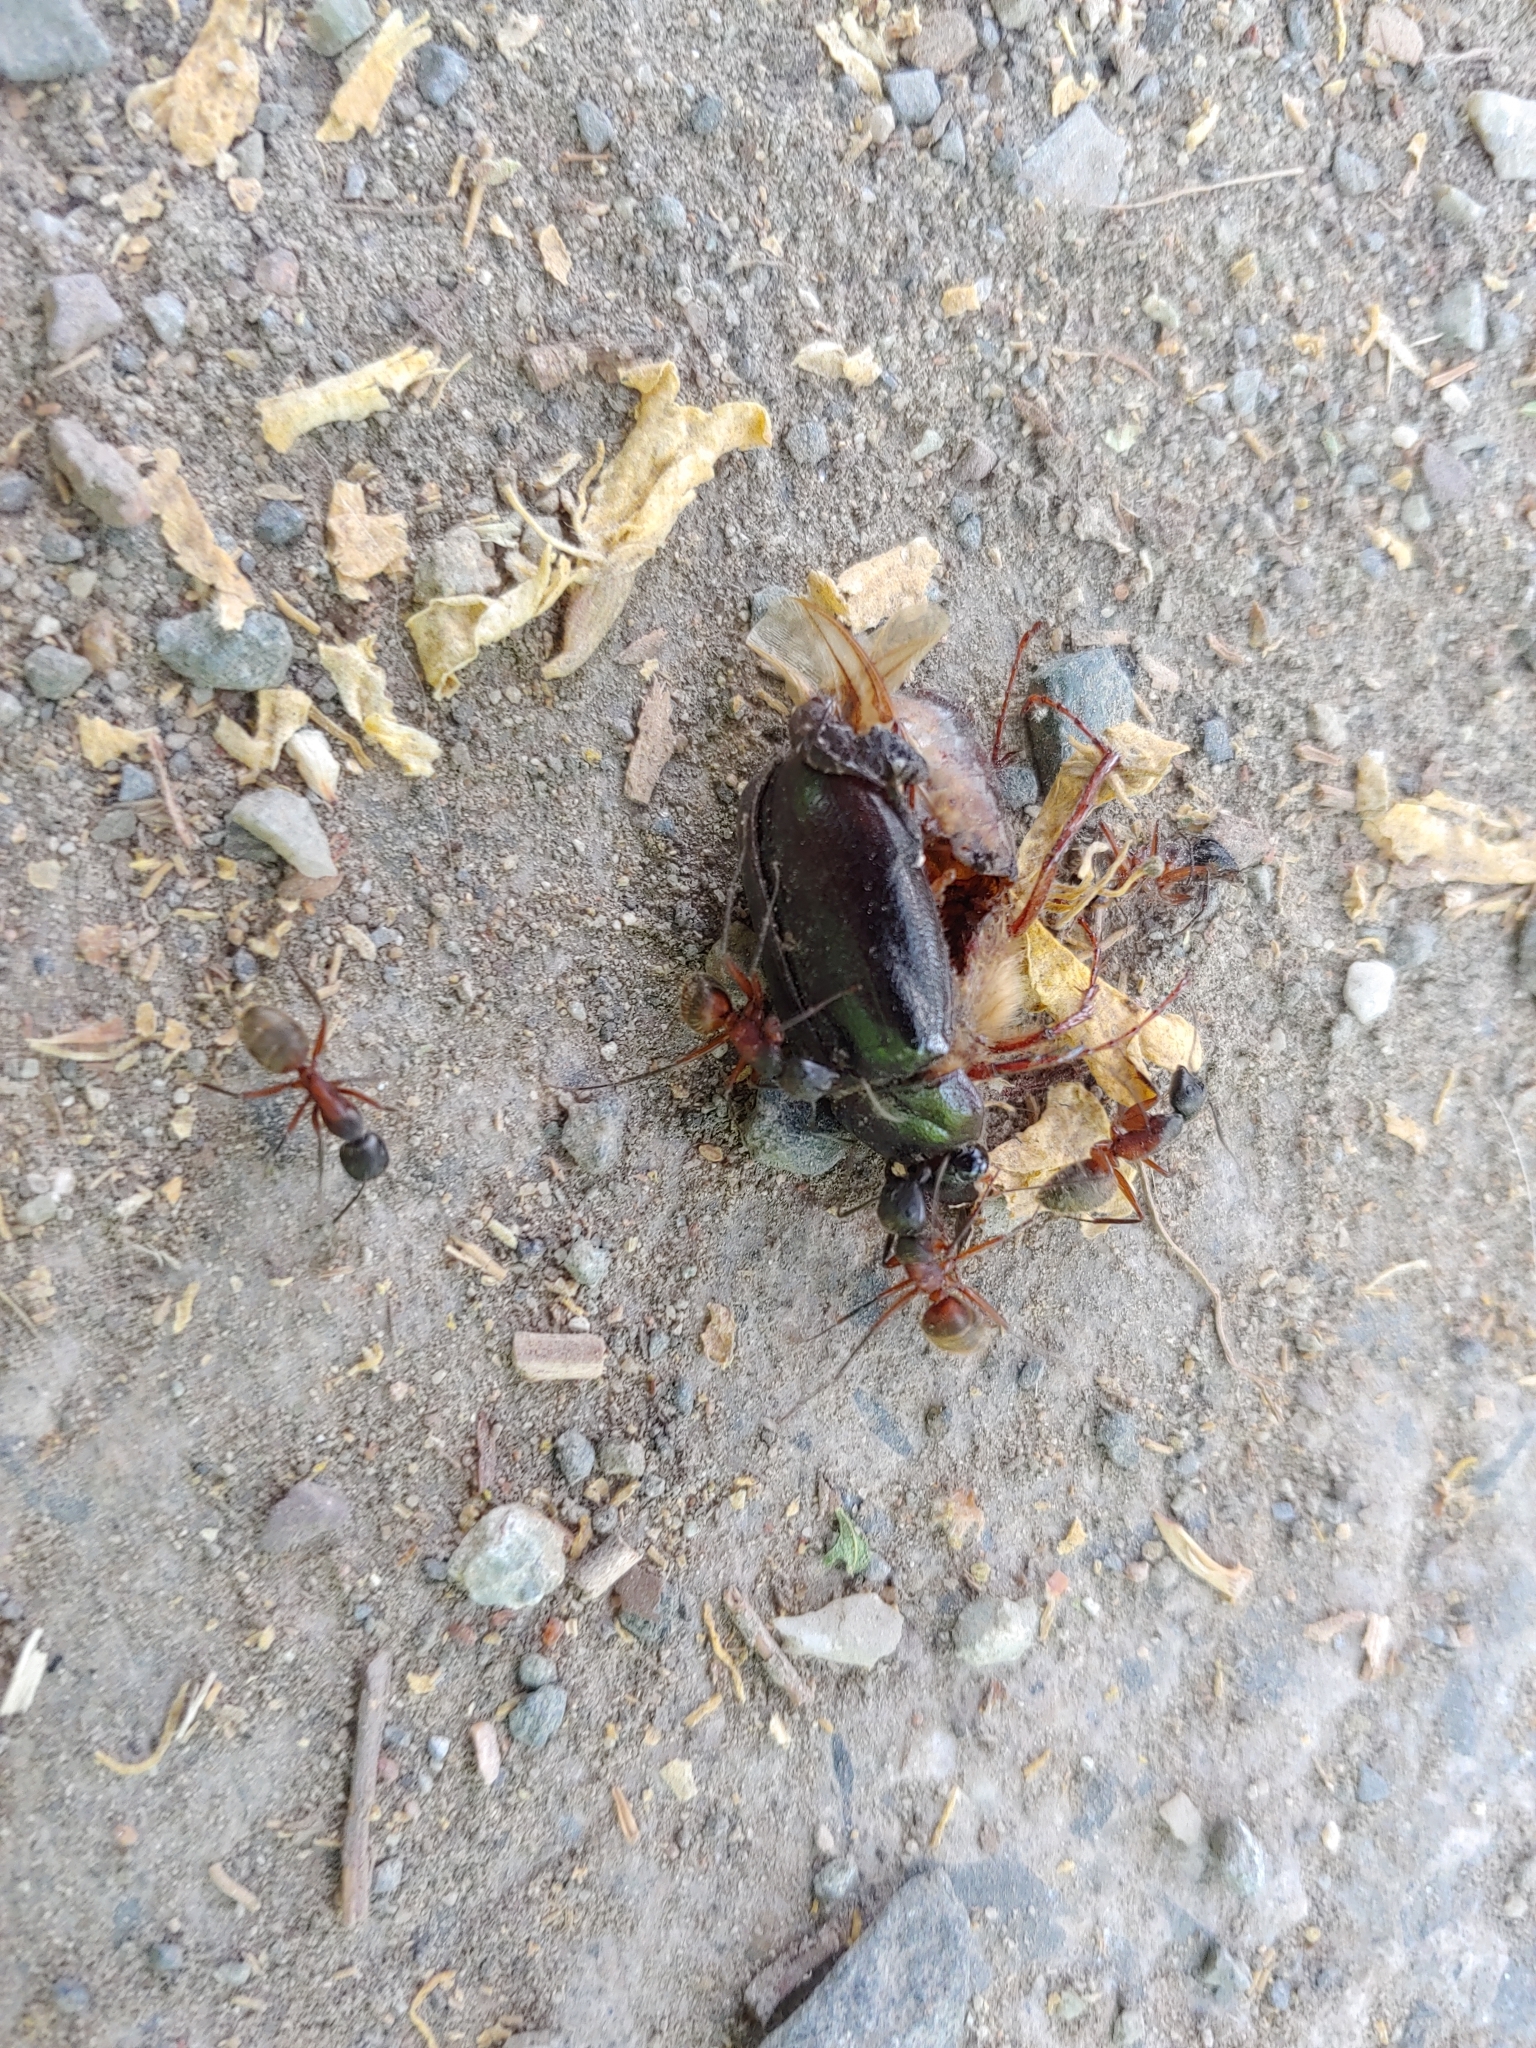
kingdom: Animalia
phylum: Arthropoda
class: Insecta
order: Hymenoptera
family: Formicidae
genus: Camponotus
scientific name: Camponotus chromaiodes
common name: Red carpenter ant
